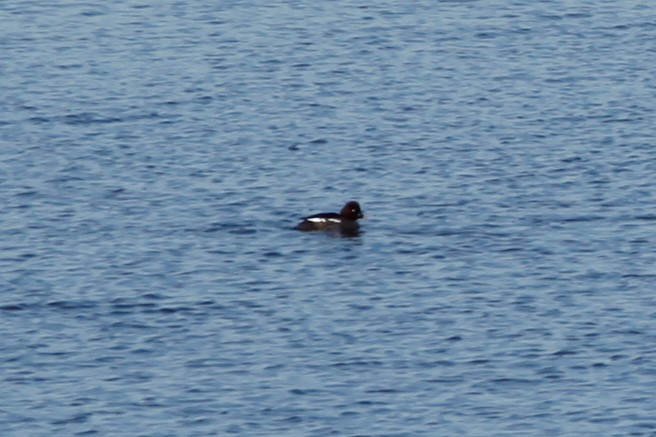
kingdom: Animalia
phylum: Chordata
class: Aves
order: Anseriformes
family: Anatidae
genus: Bucephala
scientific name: Bucephala clangula
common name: Common goldeneye
